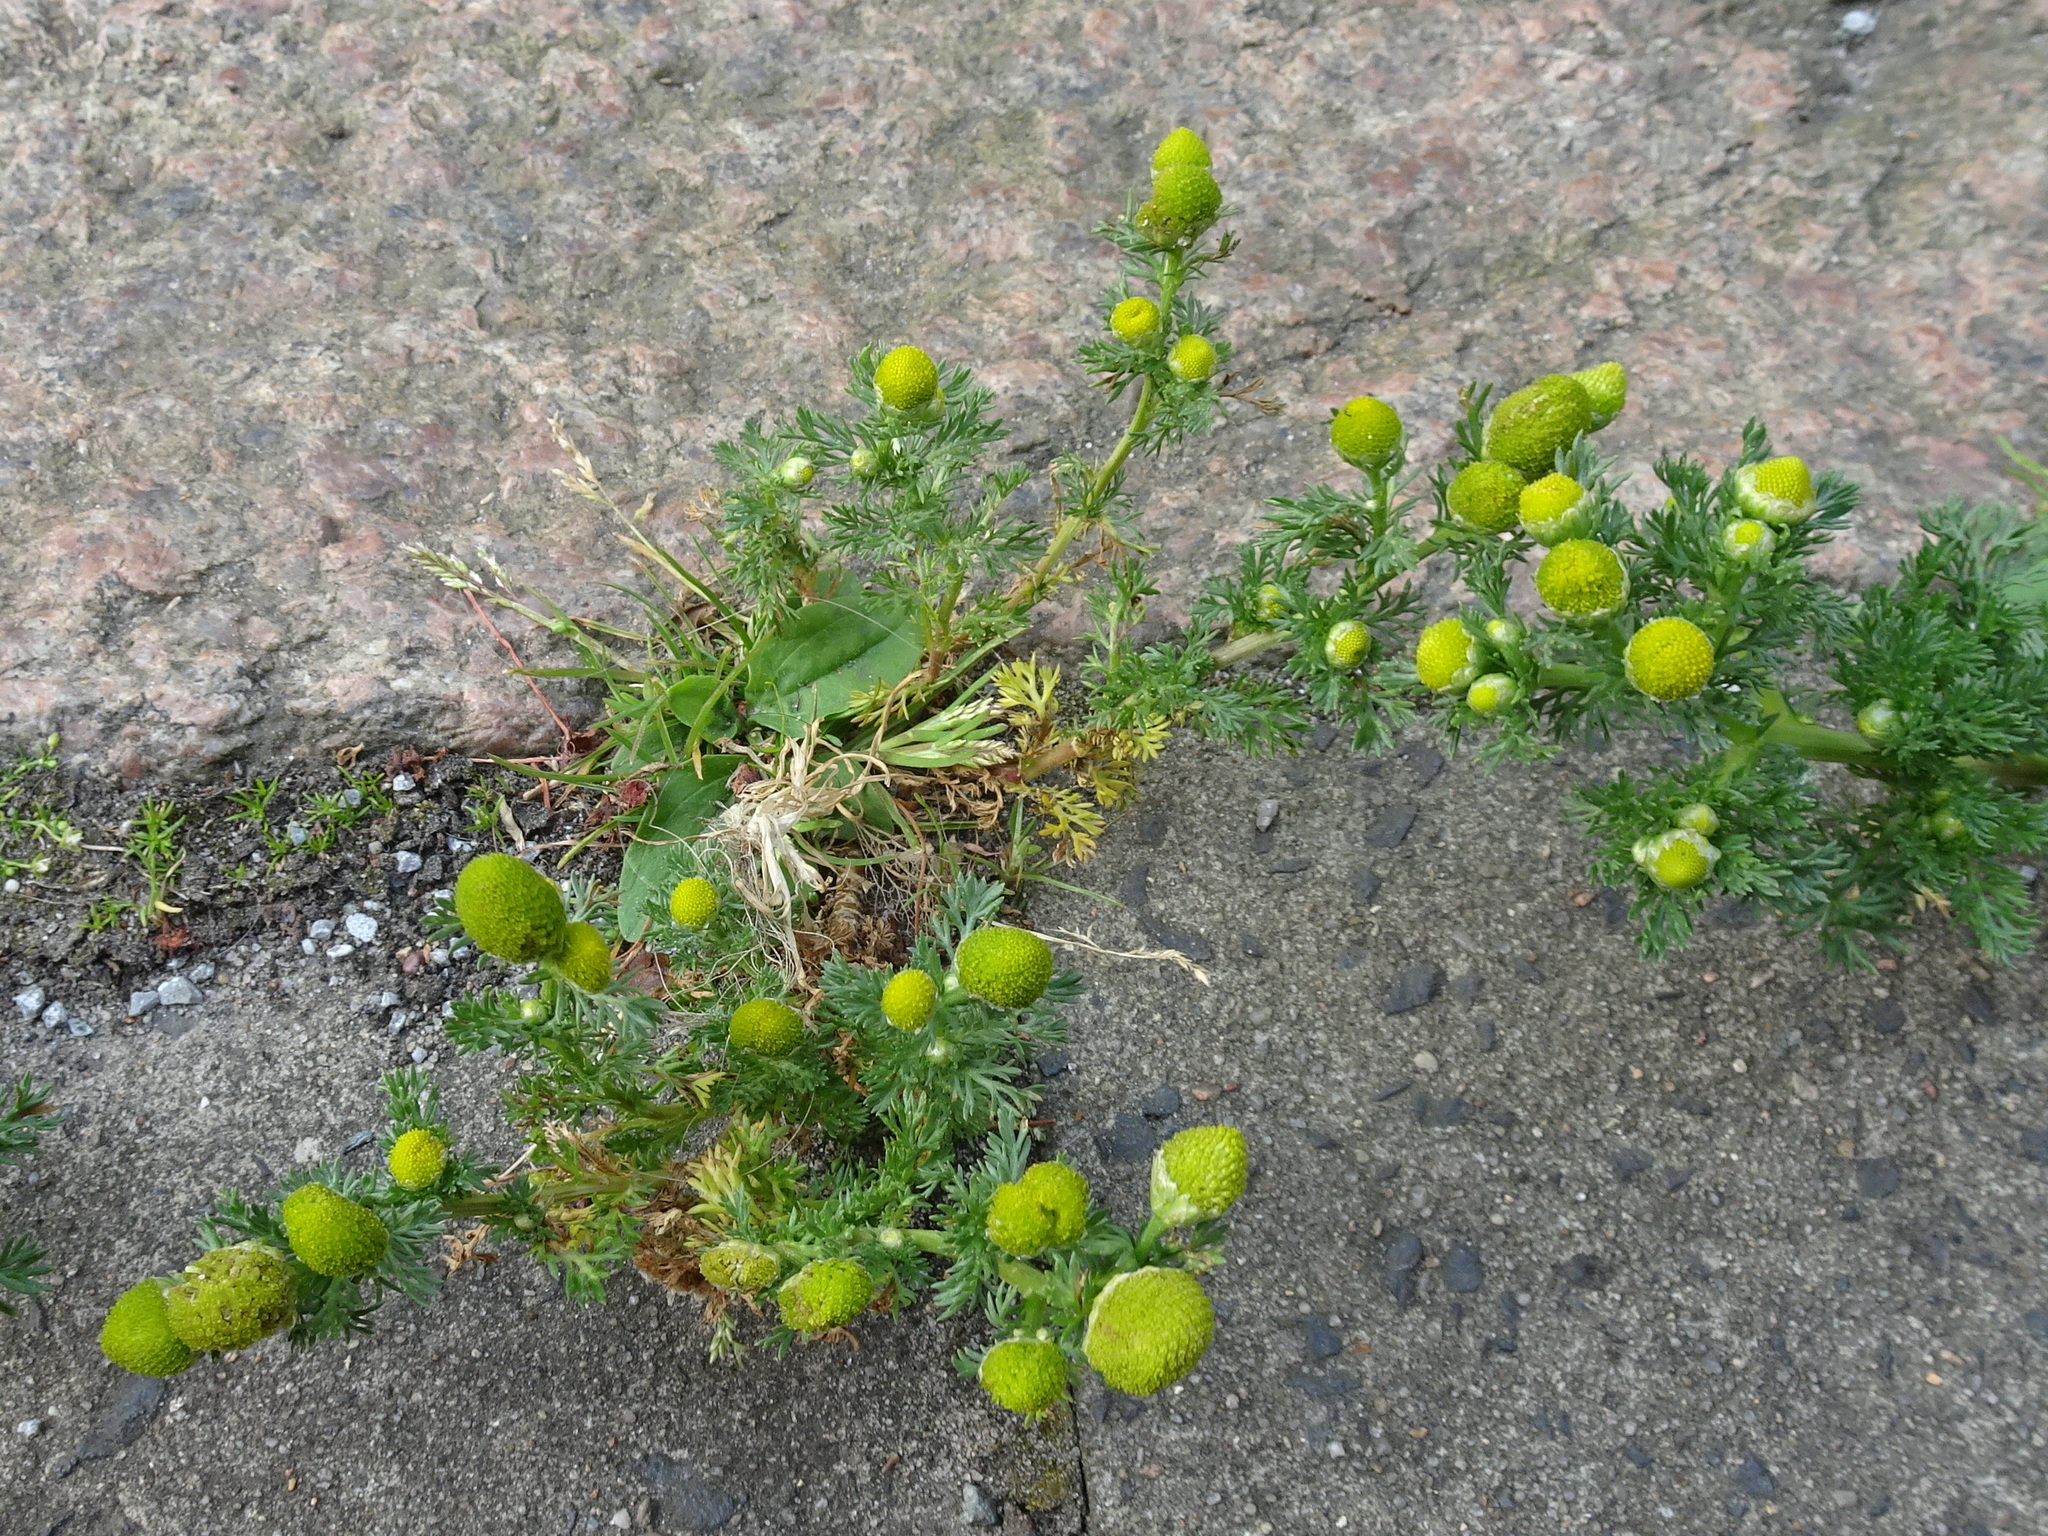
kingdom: Plantae
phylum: Tracheophyta
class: Magnoliopsida
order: Asterales
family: Asteraceae
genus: Matricaria
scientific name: Matricaria discoidea
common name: Disc mayweed
